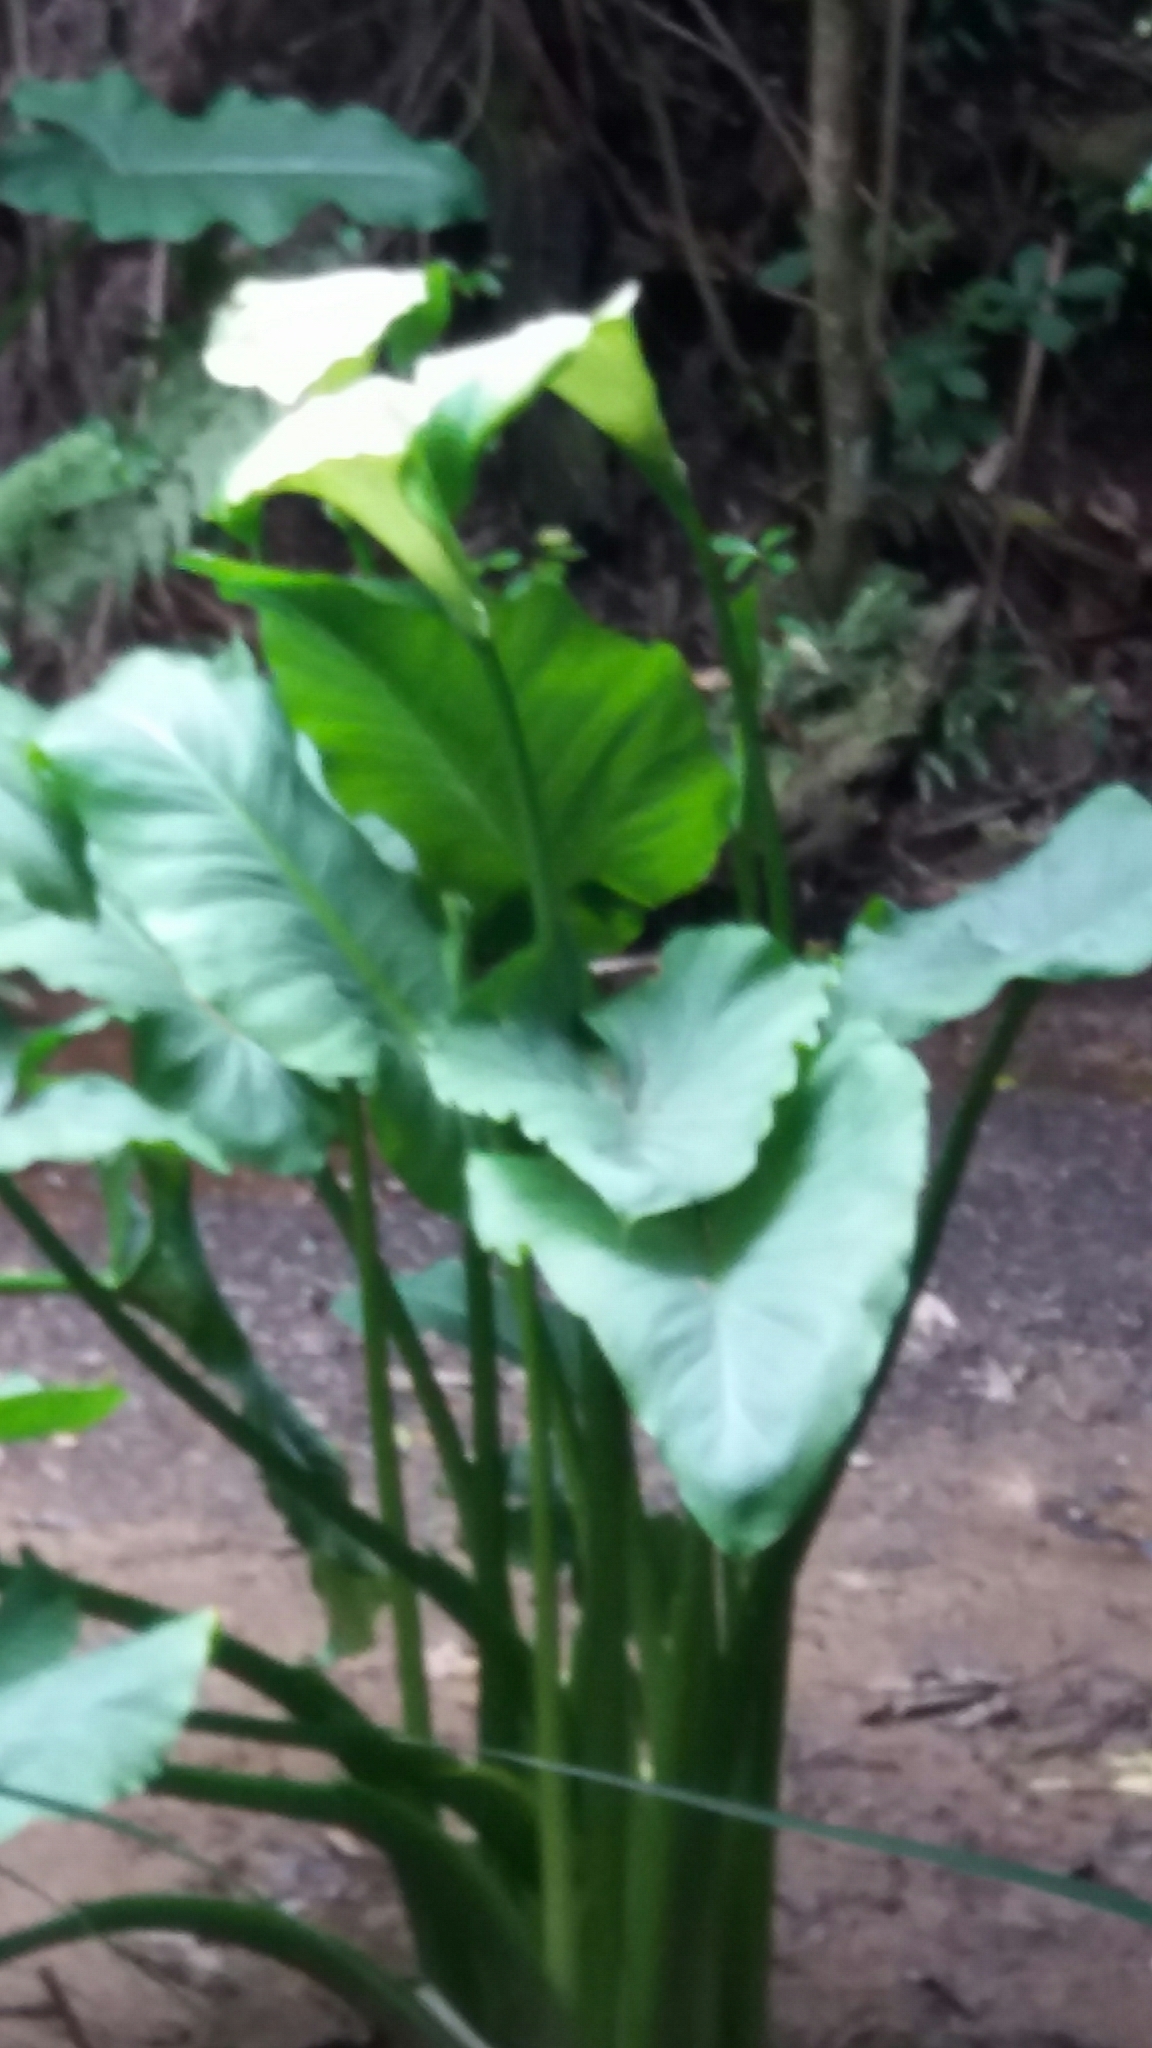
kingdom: Plantae
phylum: Tracheophyta
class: Liliopsida
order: Alismatales
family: Araceae
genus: Zantedeschia
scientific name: Zantedeschia aethiopica
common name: Altar-lily
